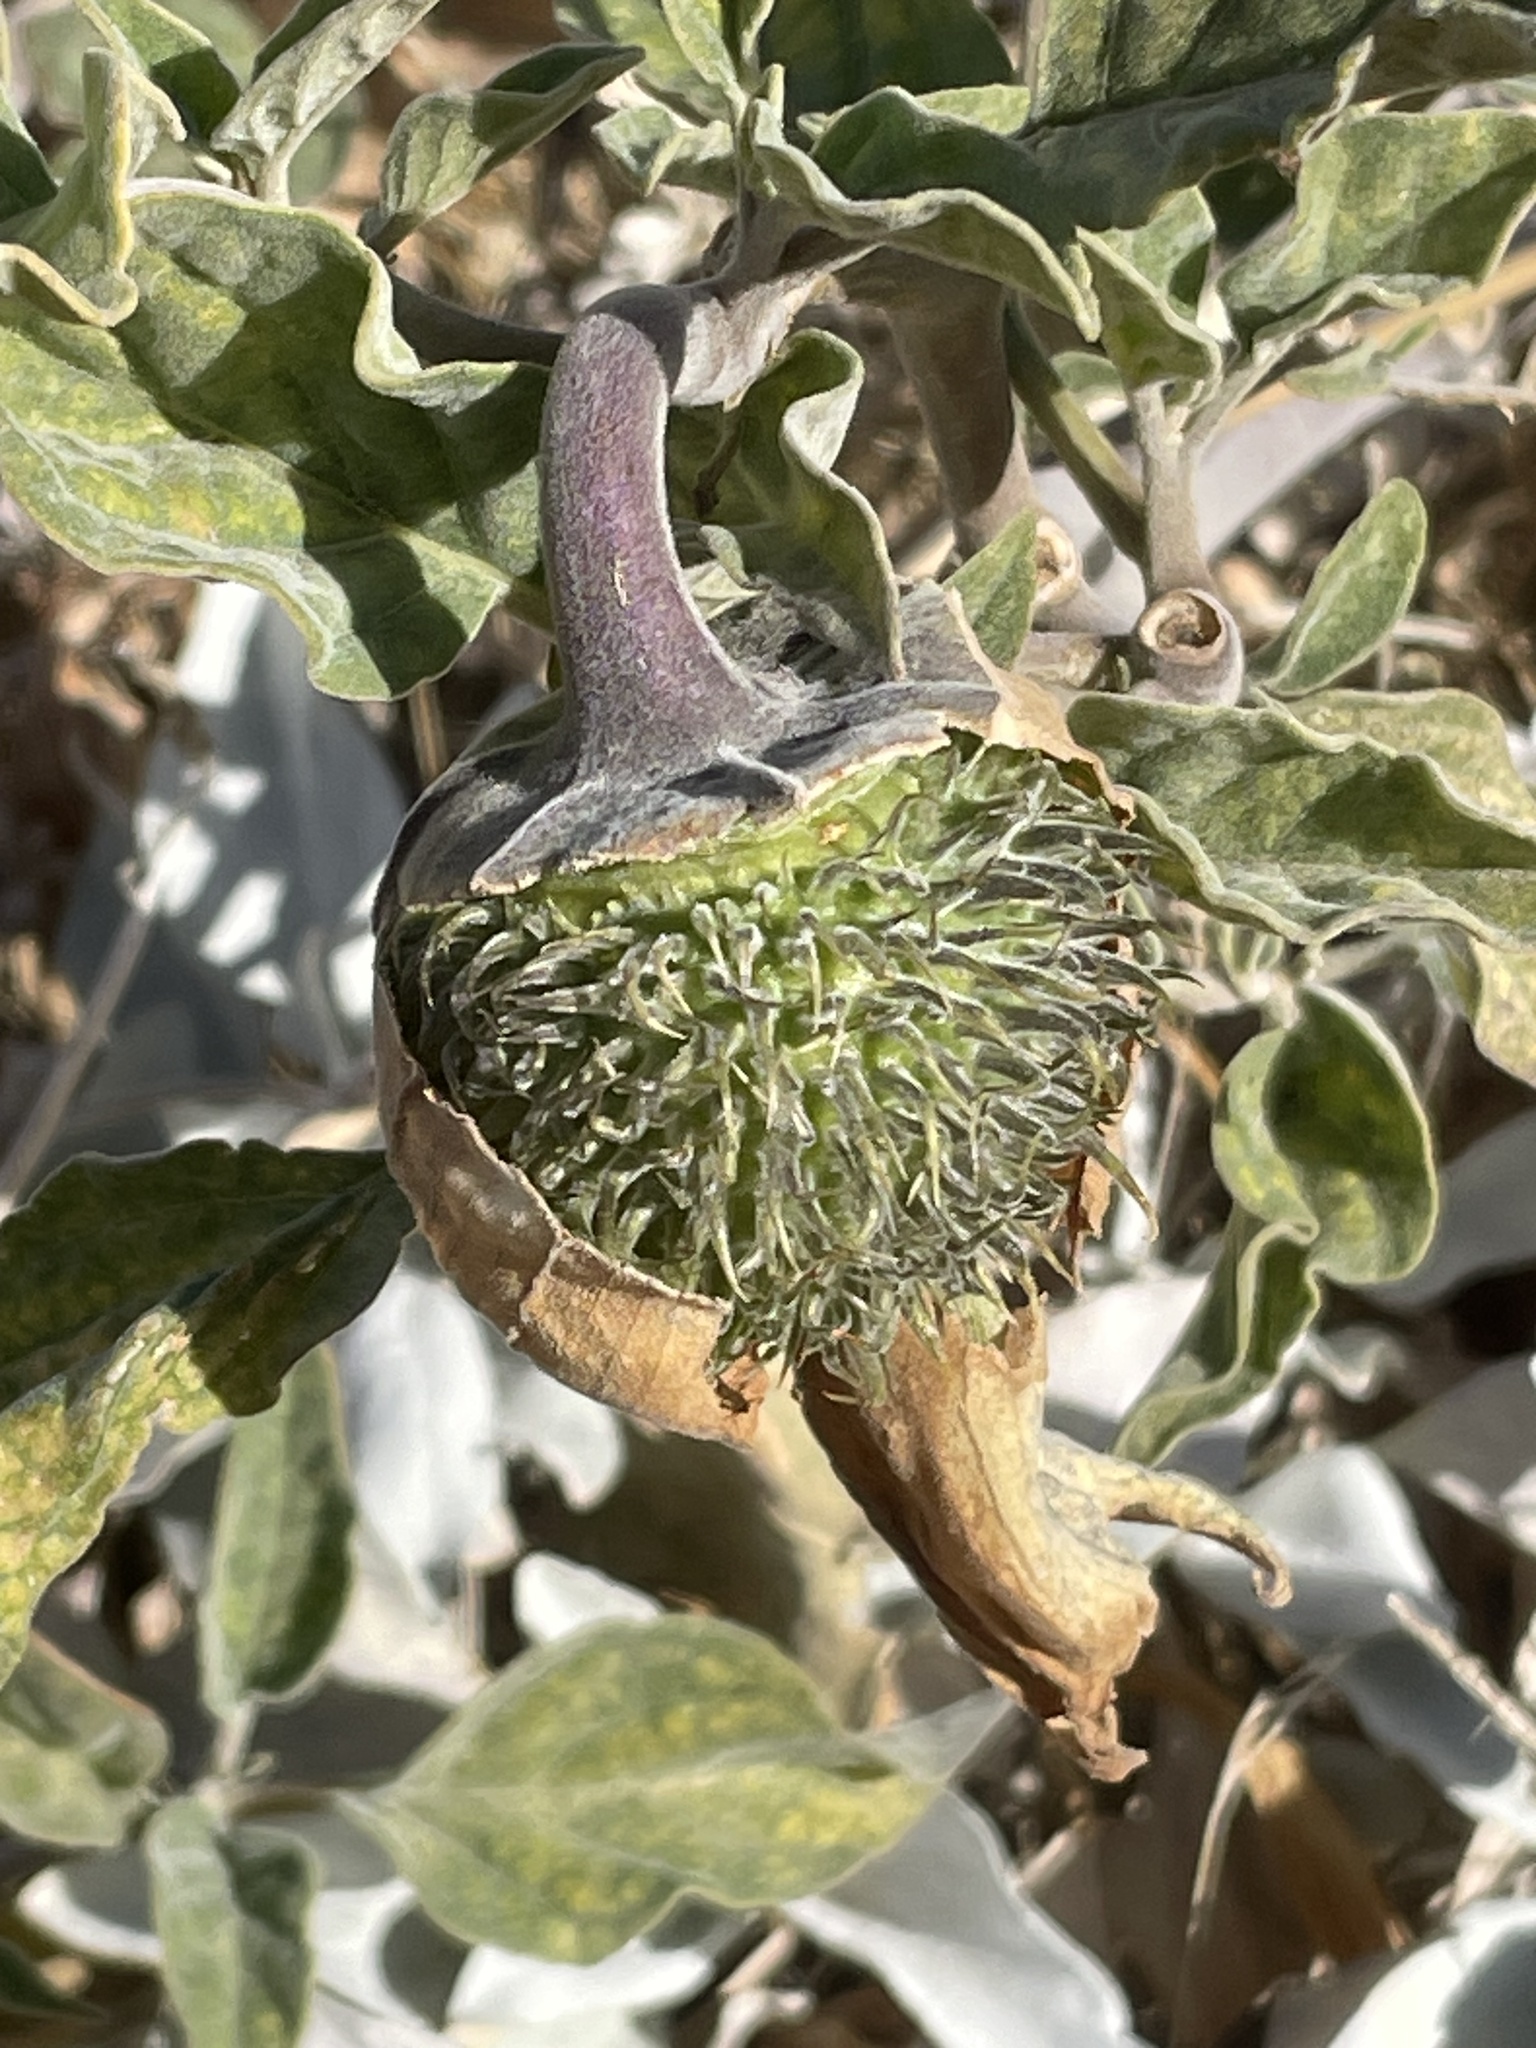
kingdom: Plantae
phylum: Tracheophyta
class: Magnoliopsida
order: Solanales
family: Solanaceae
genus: Datura
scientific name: Datura wrightii
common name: Sacred thorn-apple
